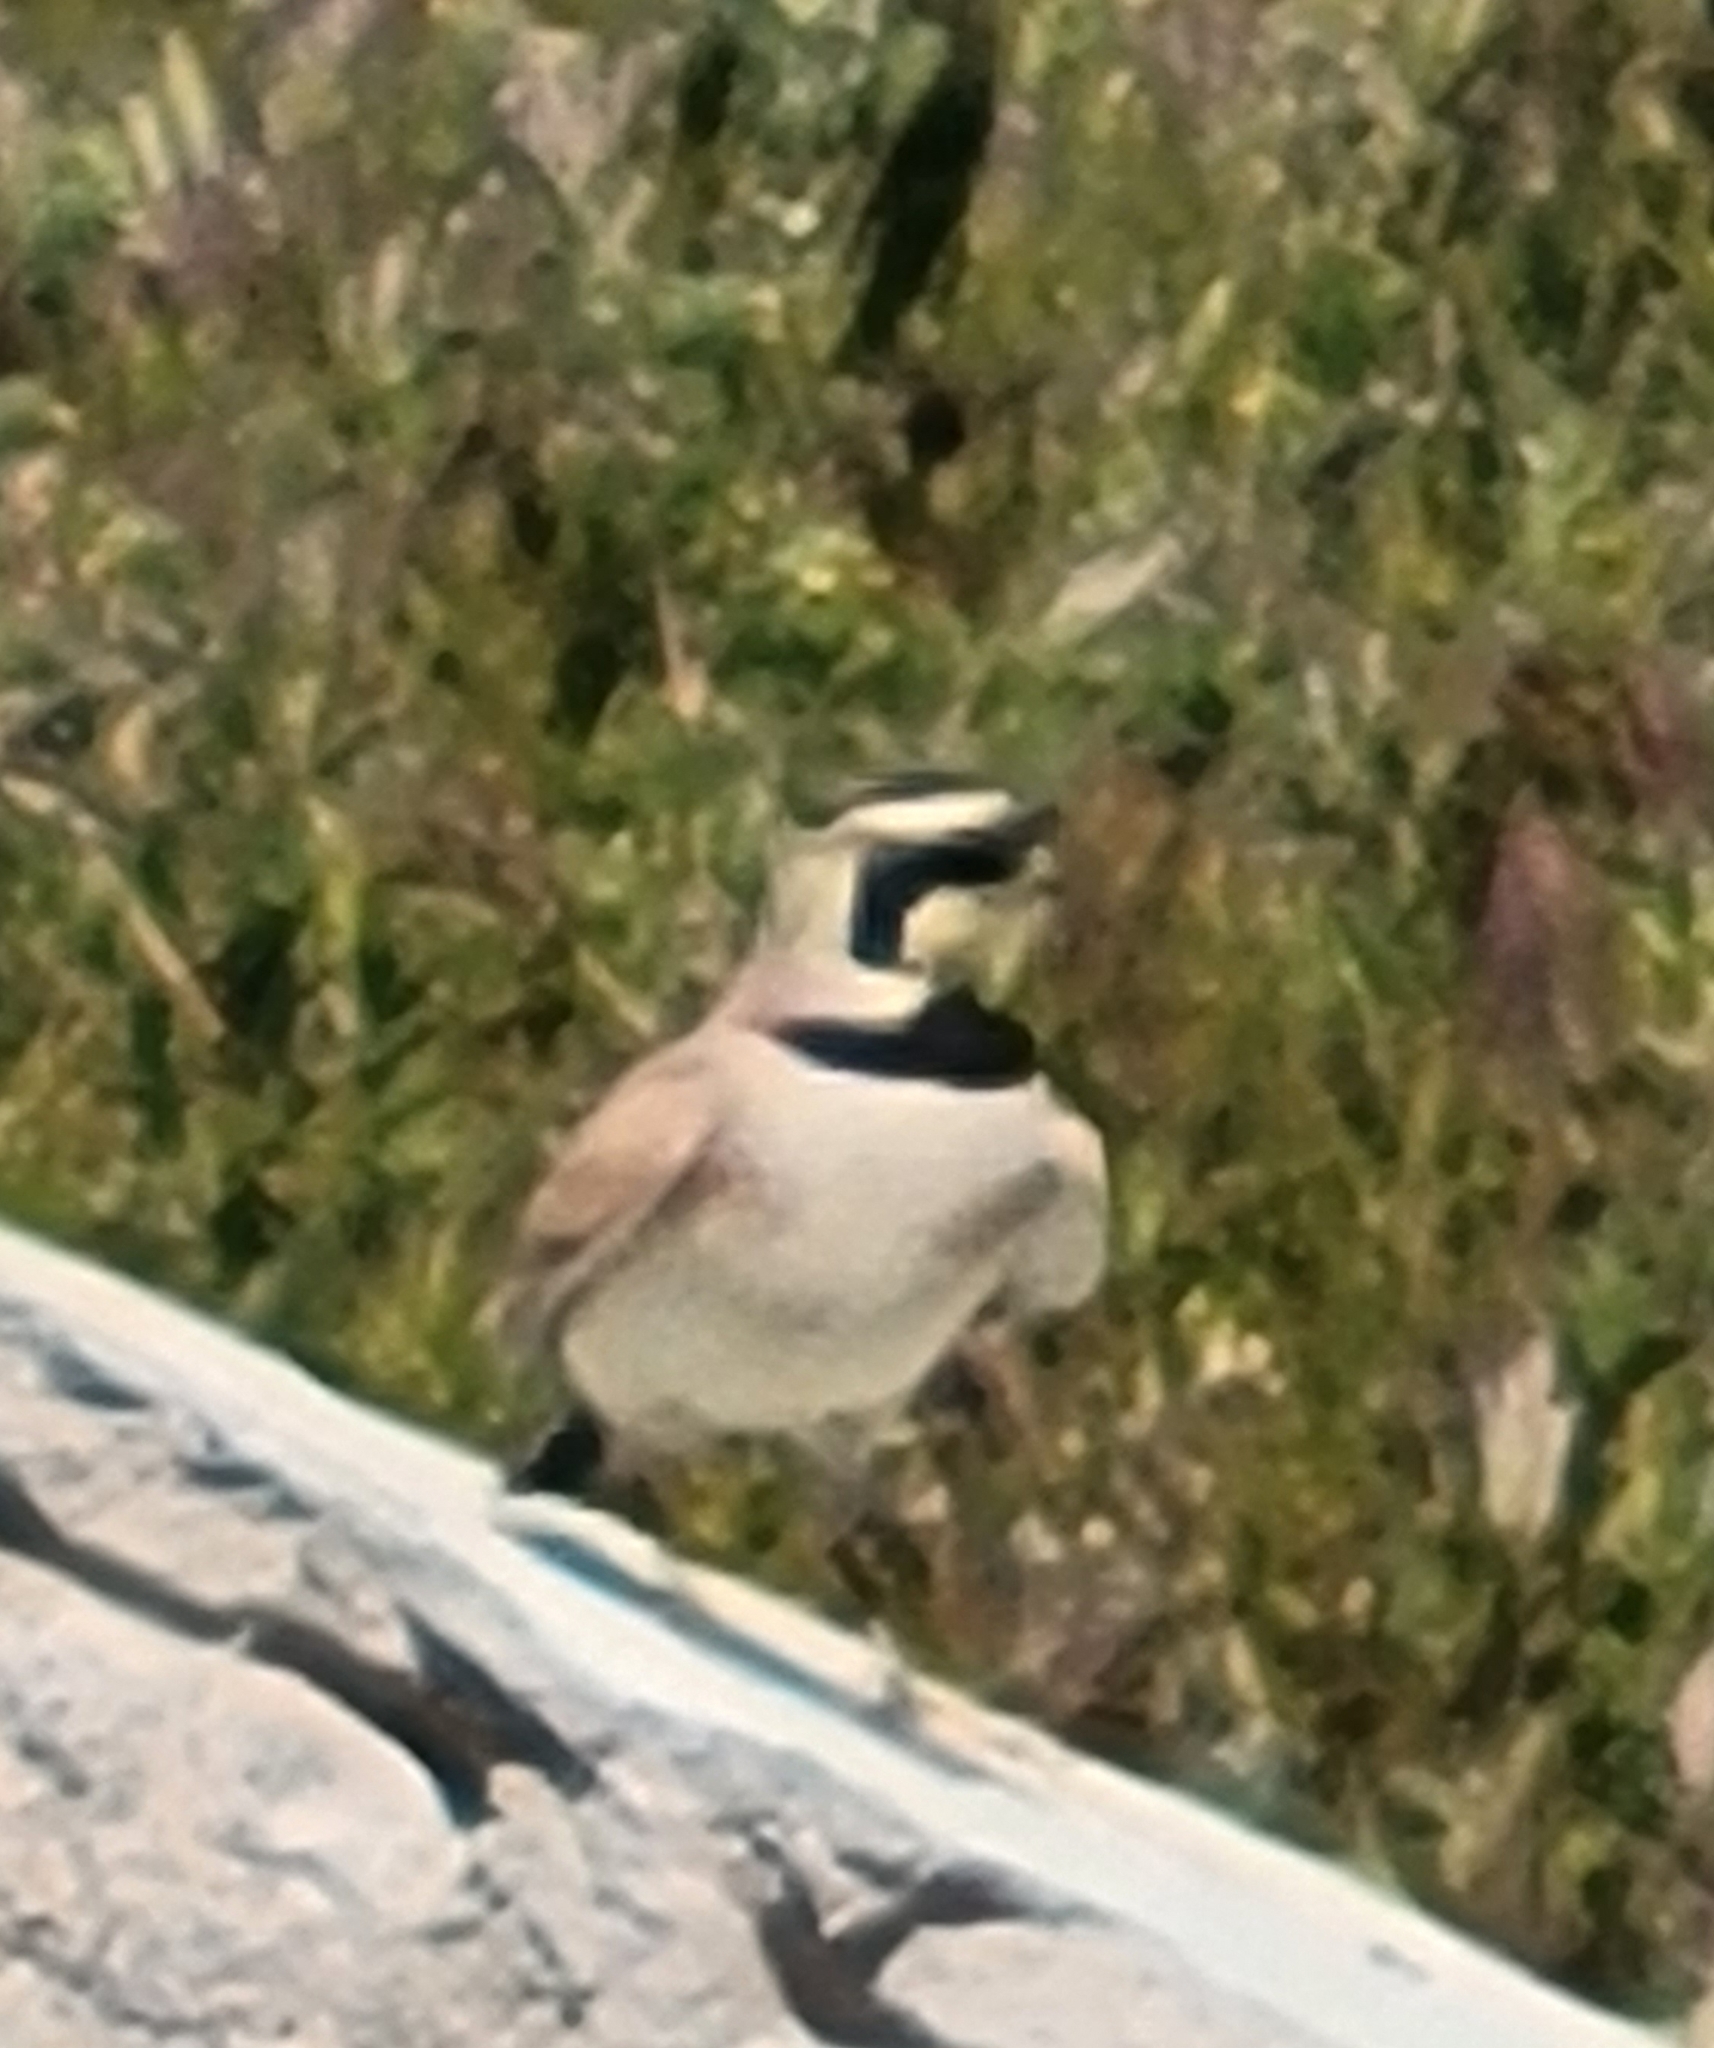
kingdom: Animalia
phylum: Chordata
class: Aves
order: Passeriformes
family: Alaudidae
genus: Eremophila
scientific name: Eremophila alpestris
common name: Horned lark
